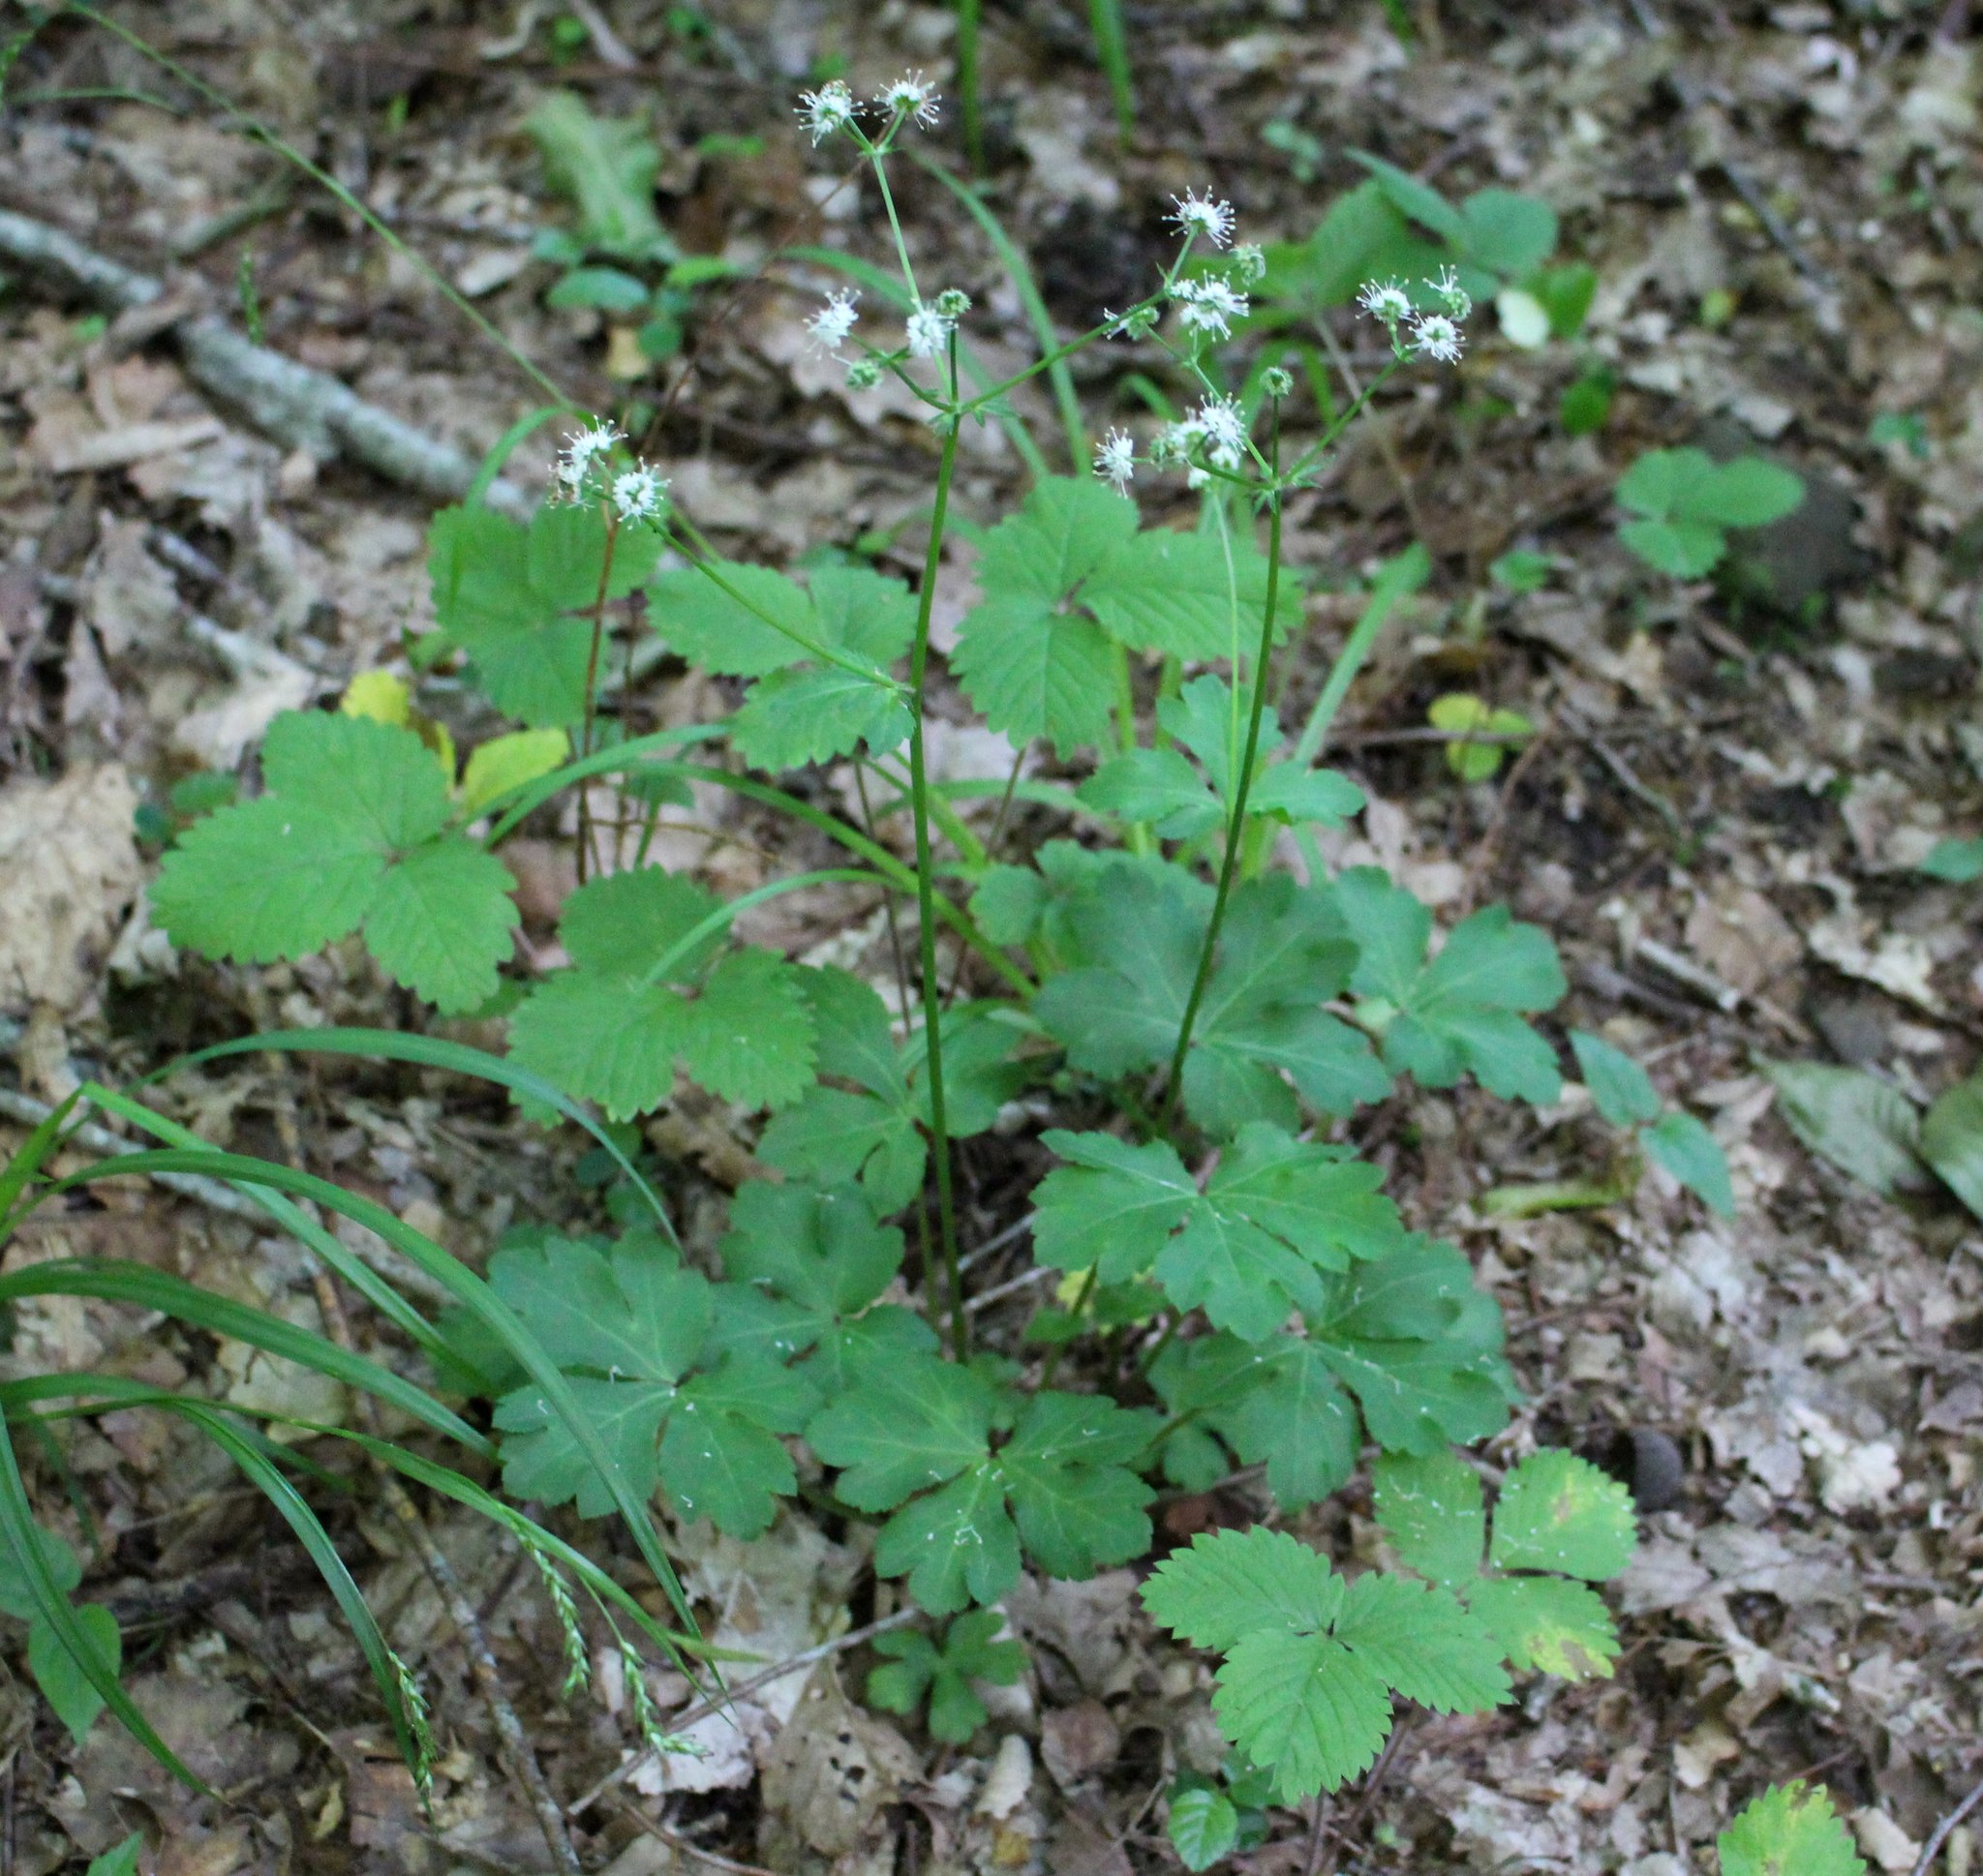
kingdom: Plantae
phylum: Tracheophyta
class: Magnoliopsida
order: Apiales
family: Apiaceae
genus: Sanicula
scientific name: Sanicula europaea
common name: Sanicle
